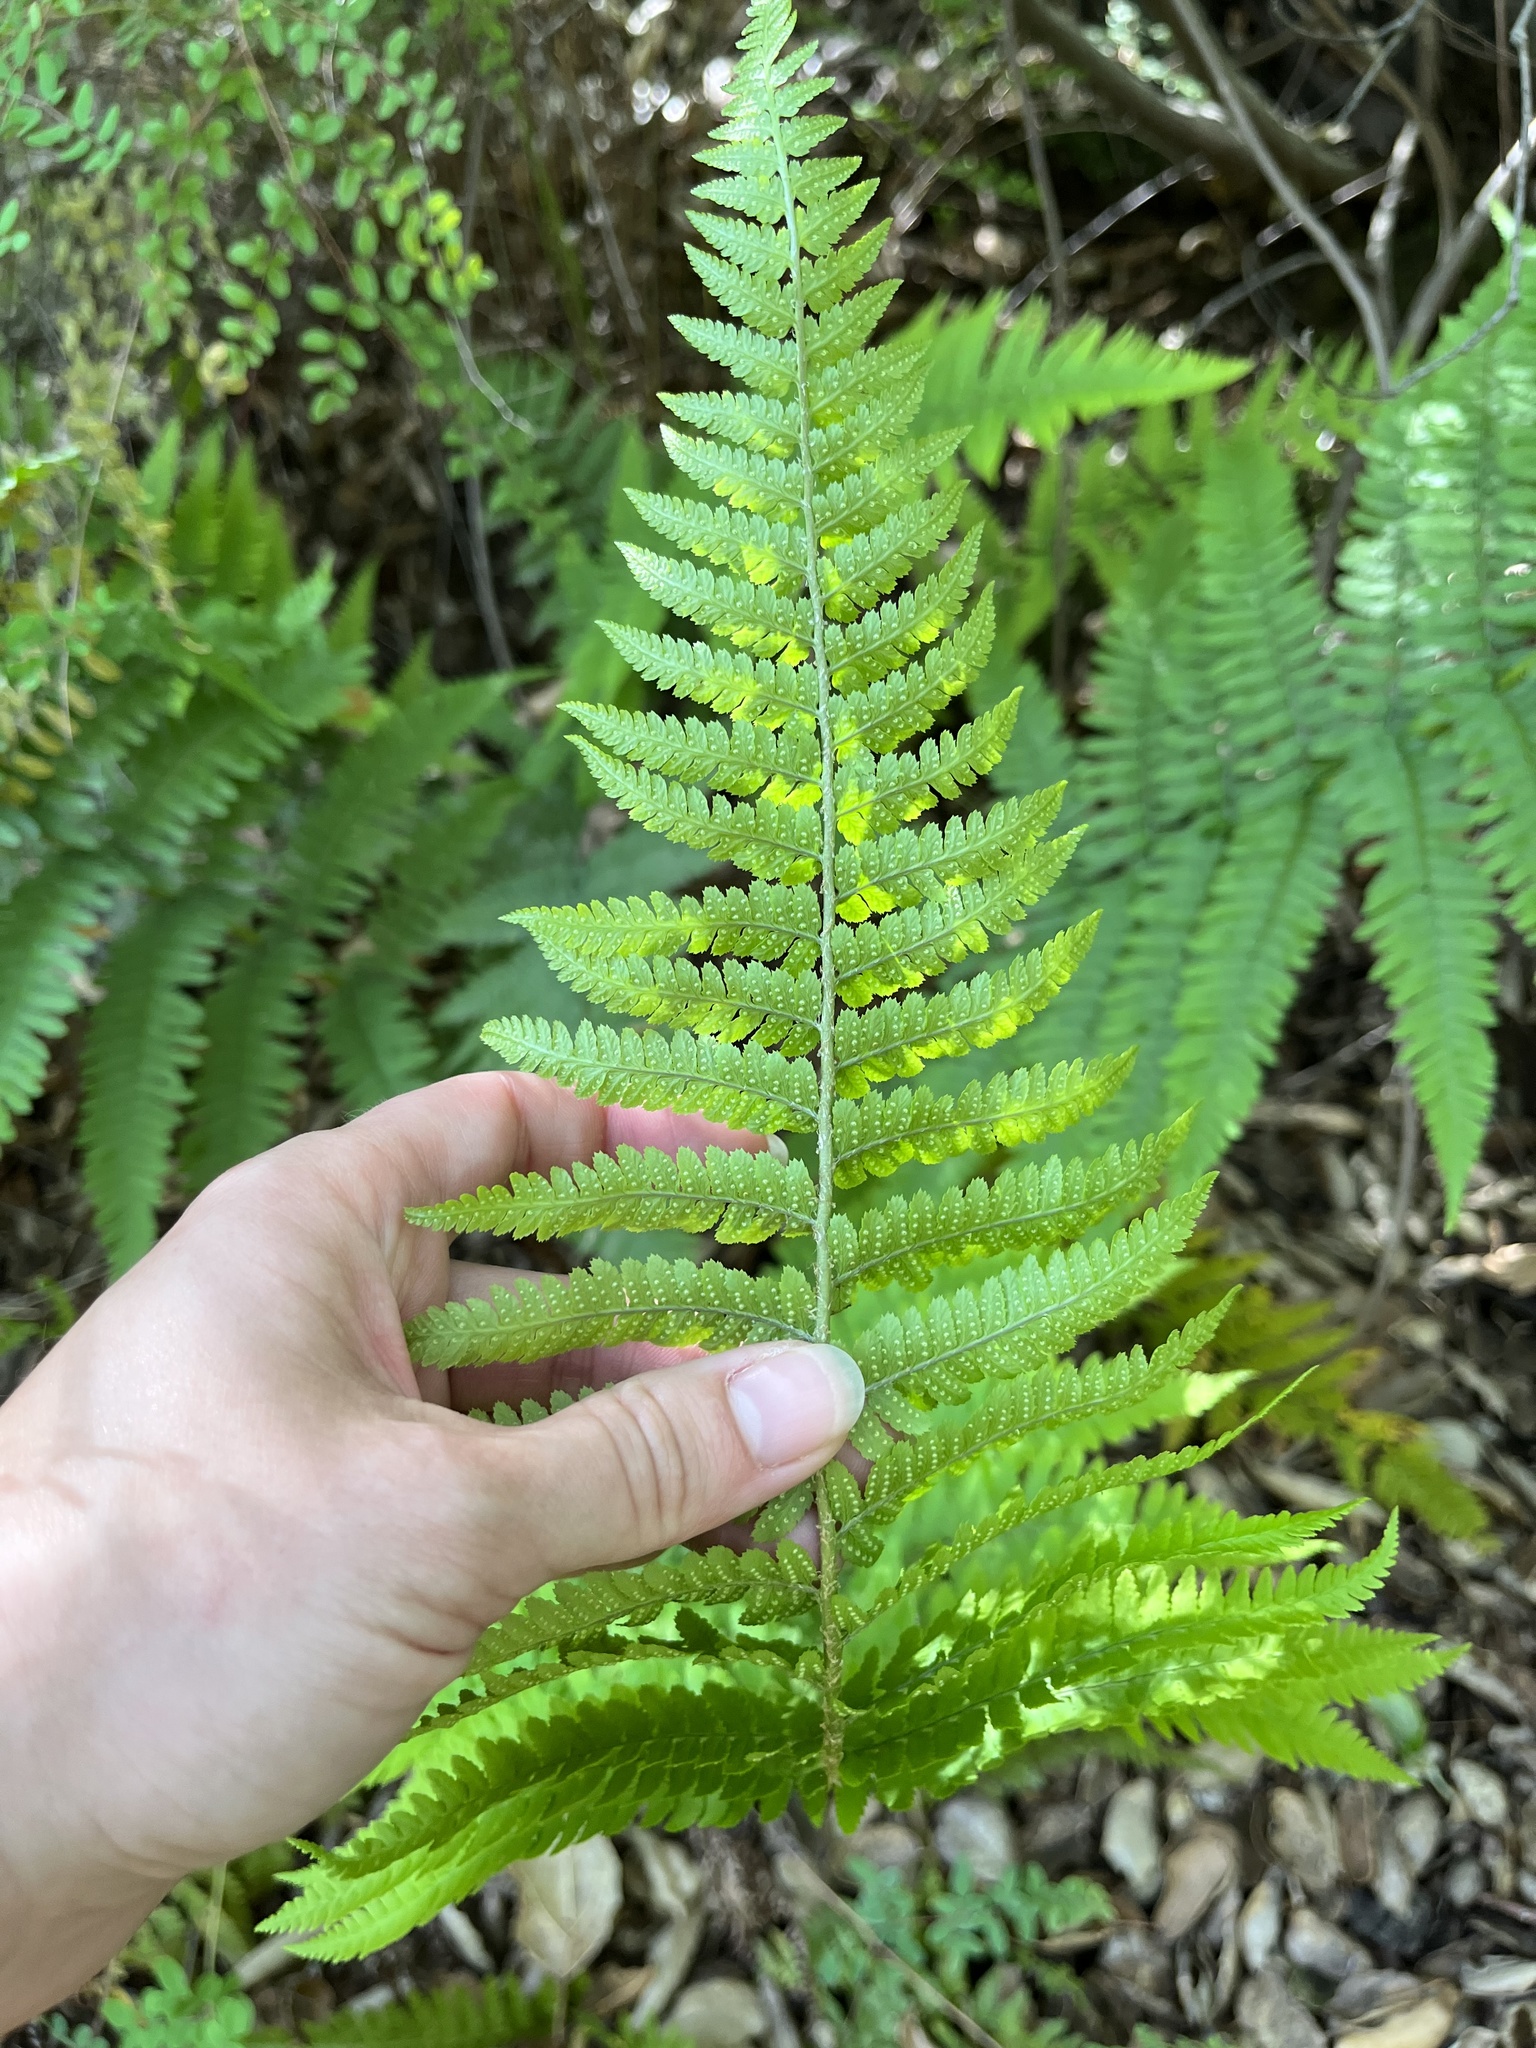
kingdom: Plantae
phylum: Tracheophyta
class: Polypodiopsida
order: Polypodiales
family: Dryopteridaceae
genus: Dryopteris
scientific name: Dryopteris arguta
